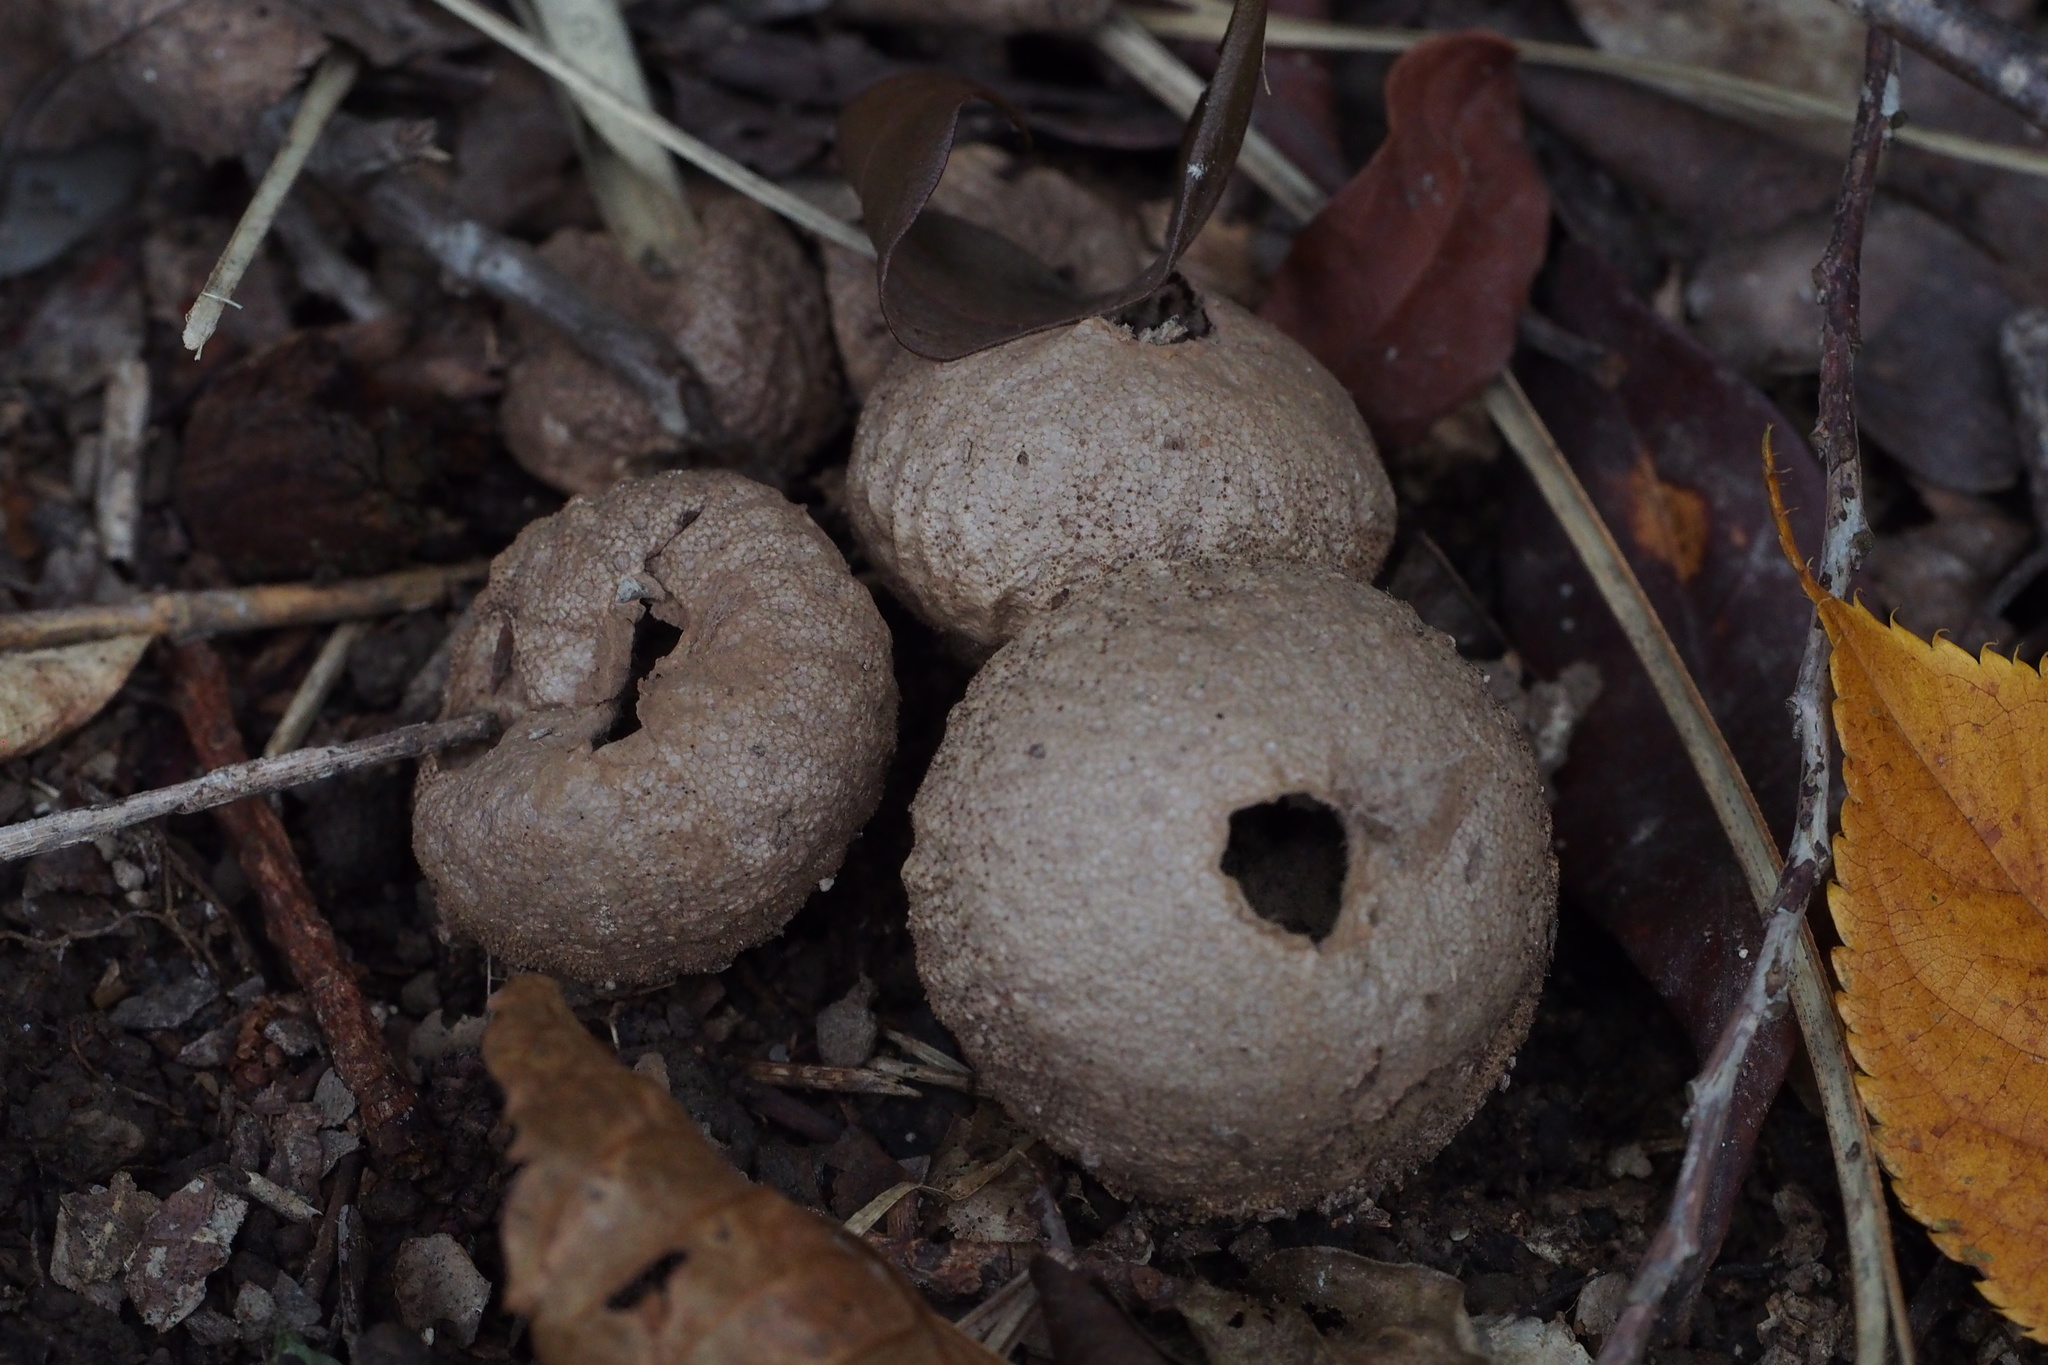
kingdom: Fungi
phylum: Basidiomycota
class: Agaricomycetes
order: Agaricales
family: Lycoperdaceae
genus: Lycoperdon
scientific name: Lycoperdon perlatum
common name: Common puffball
